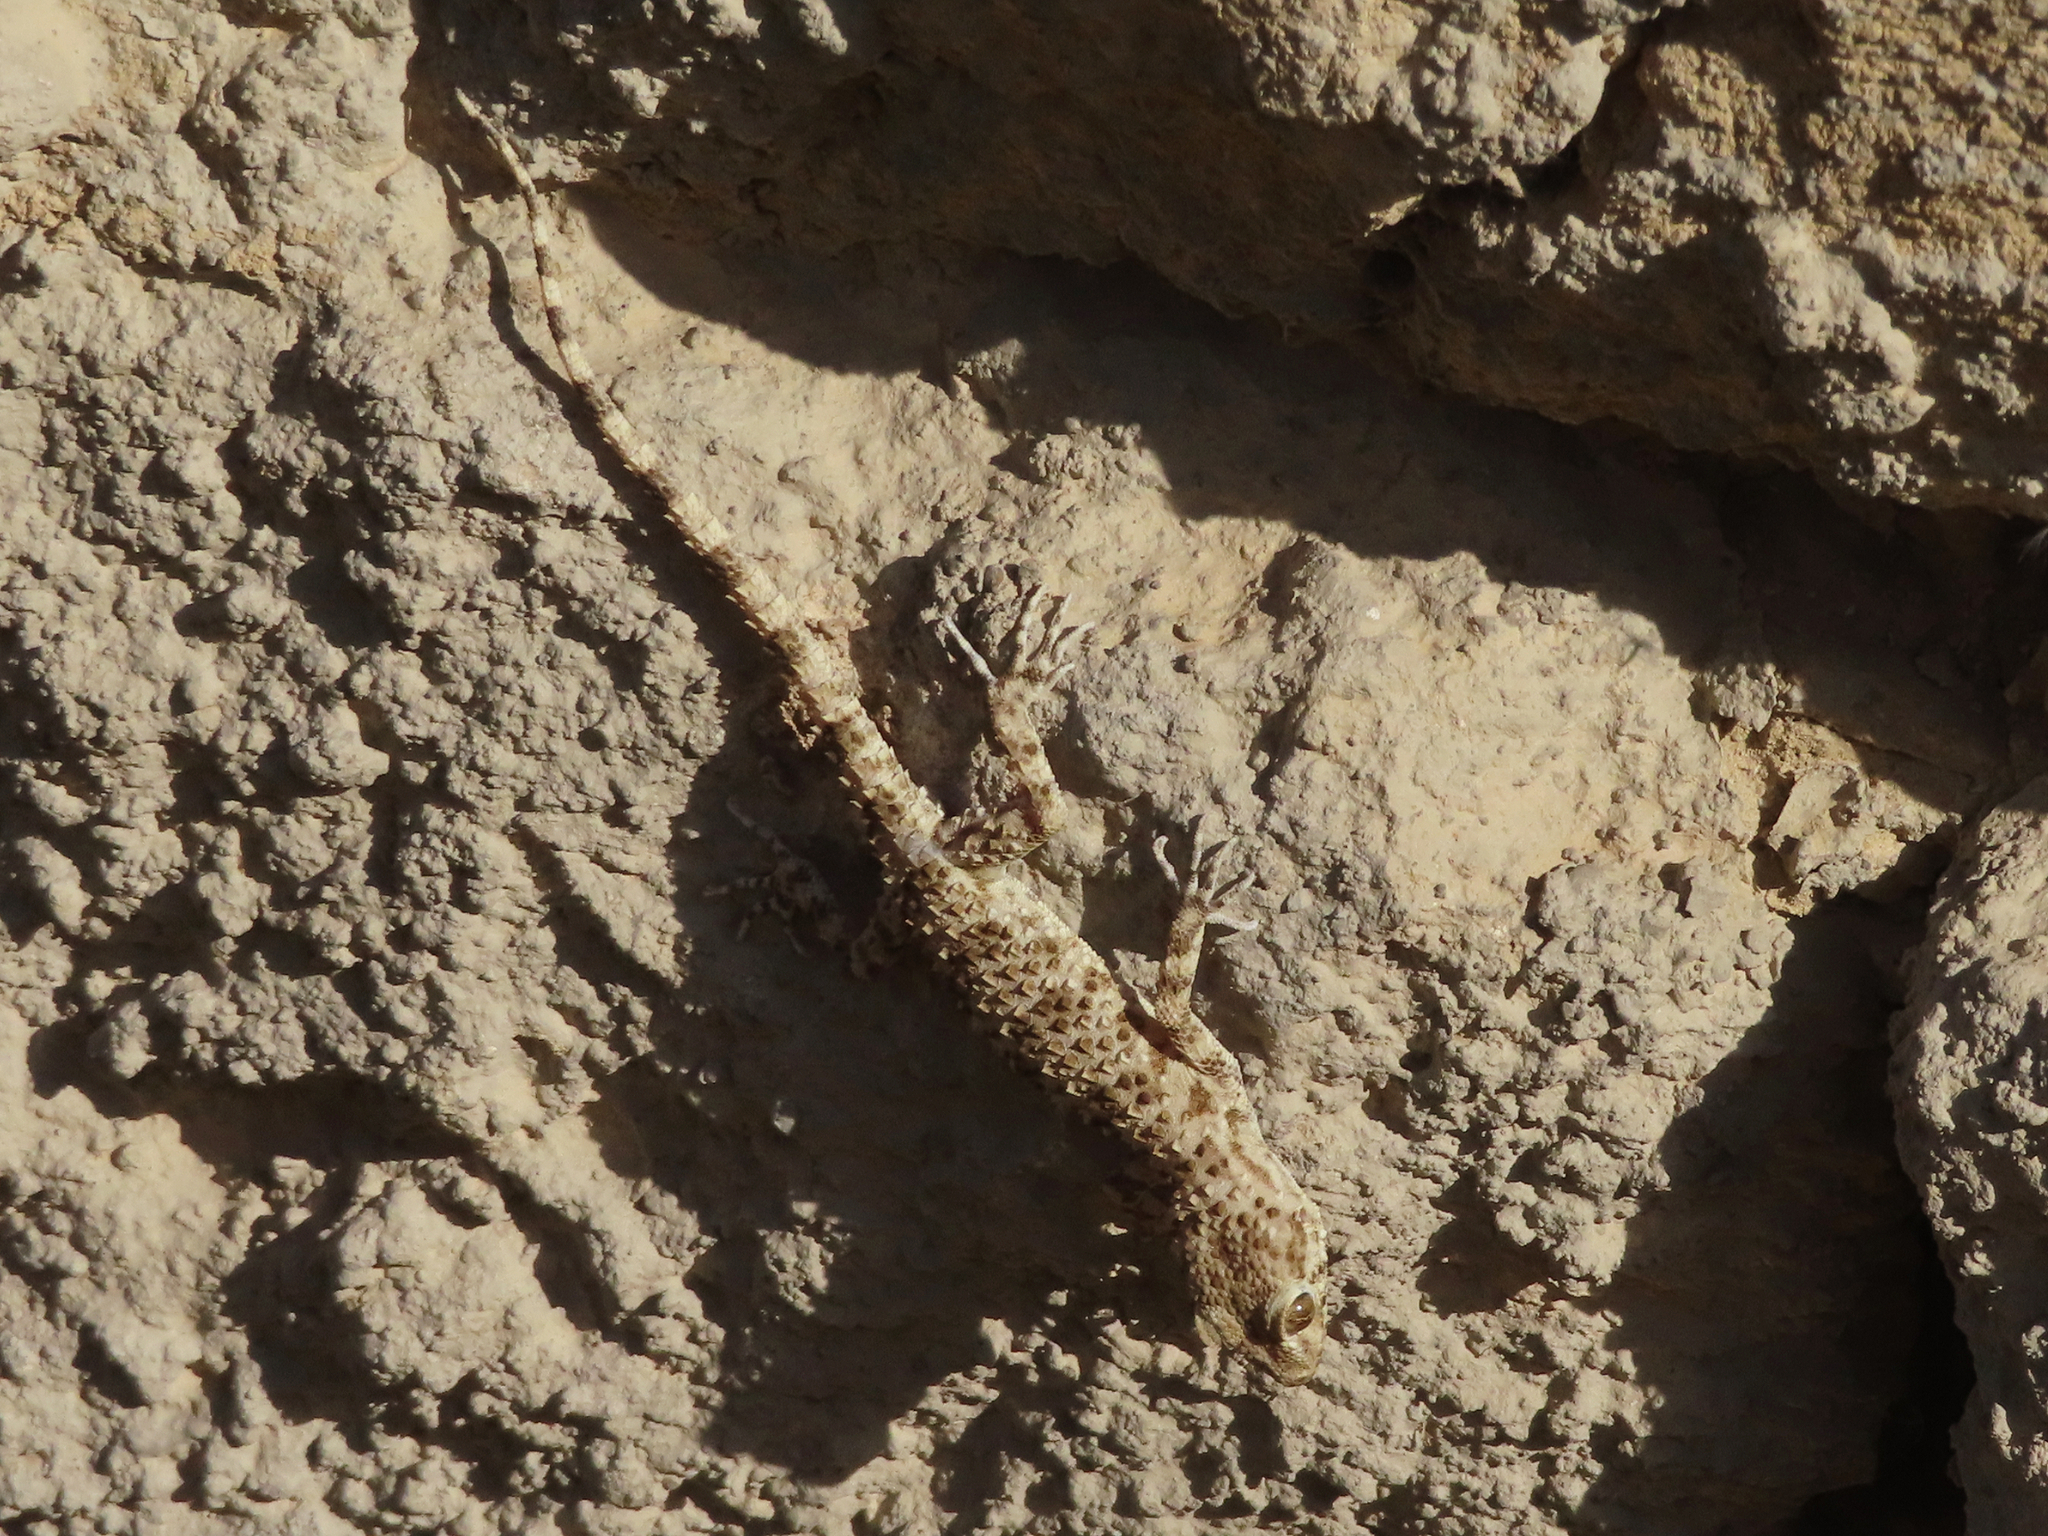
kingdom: Animalia
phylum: Chordata
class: Squamata
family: Gekkonidae
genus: Tenuidactylus
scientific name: Tenuidactylus caspius
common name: Caspian bent-toed gecko
